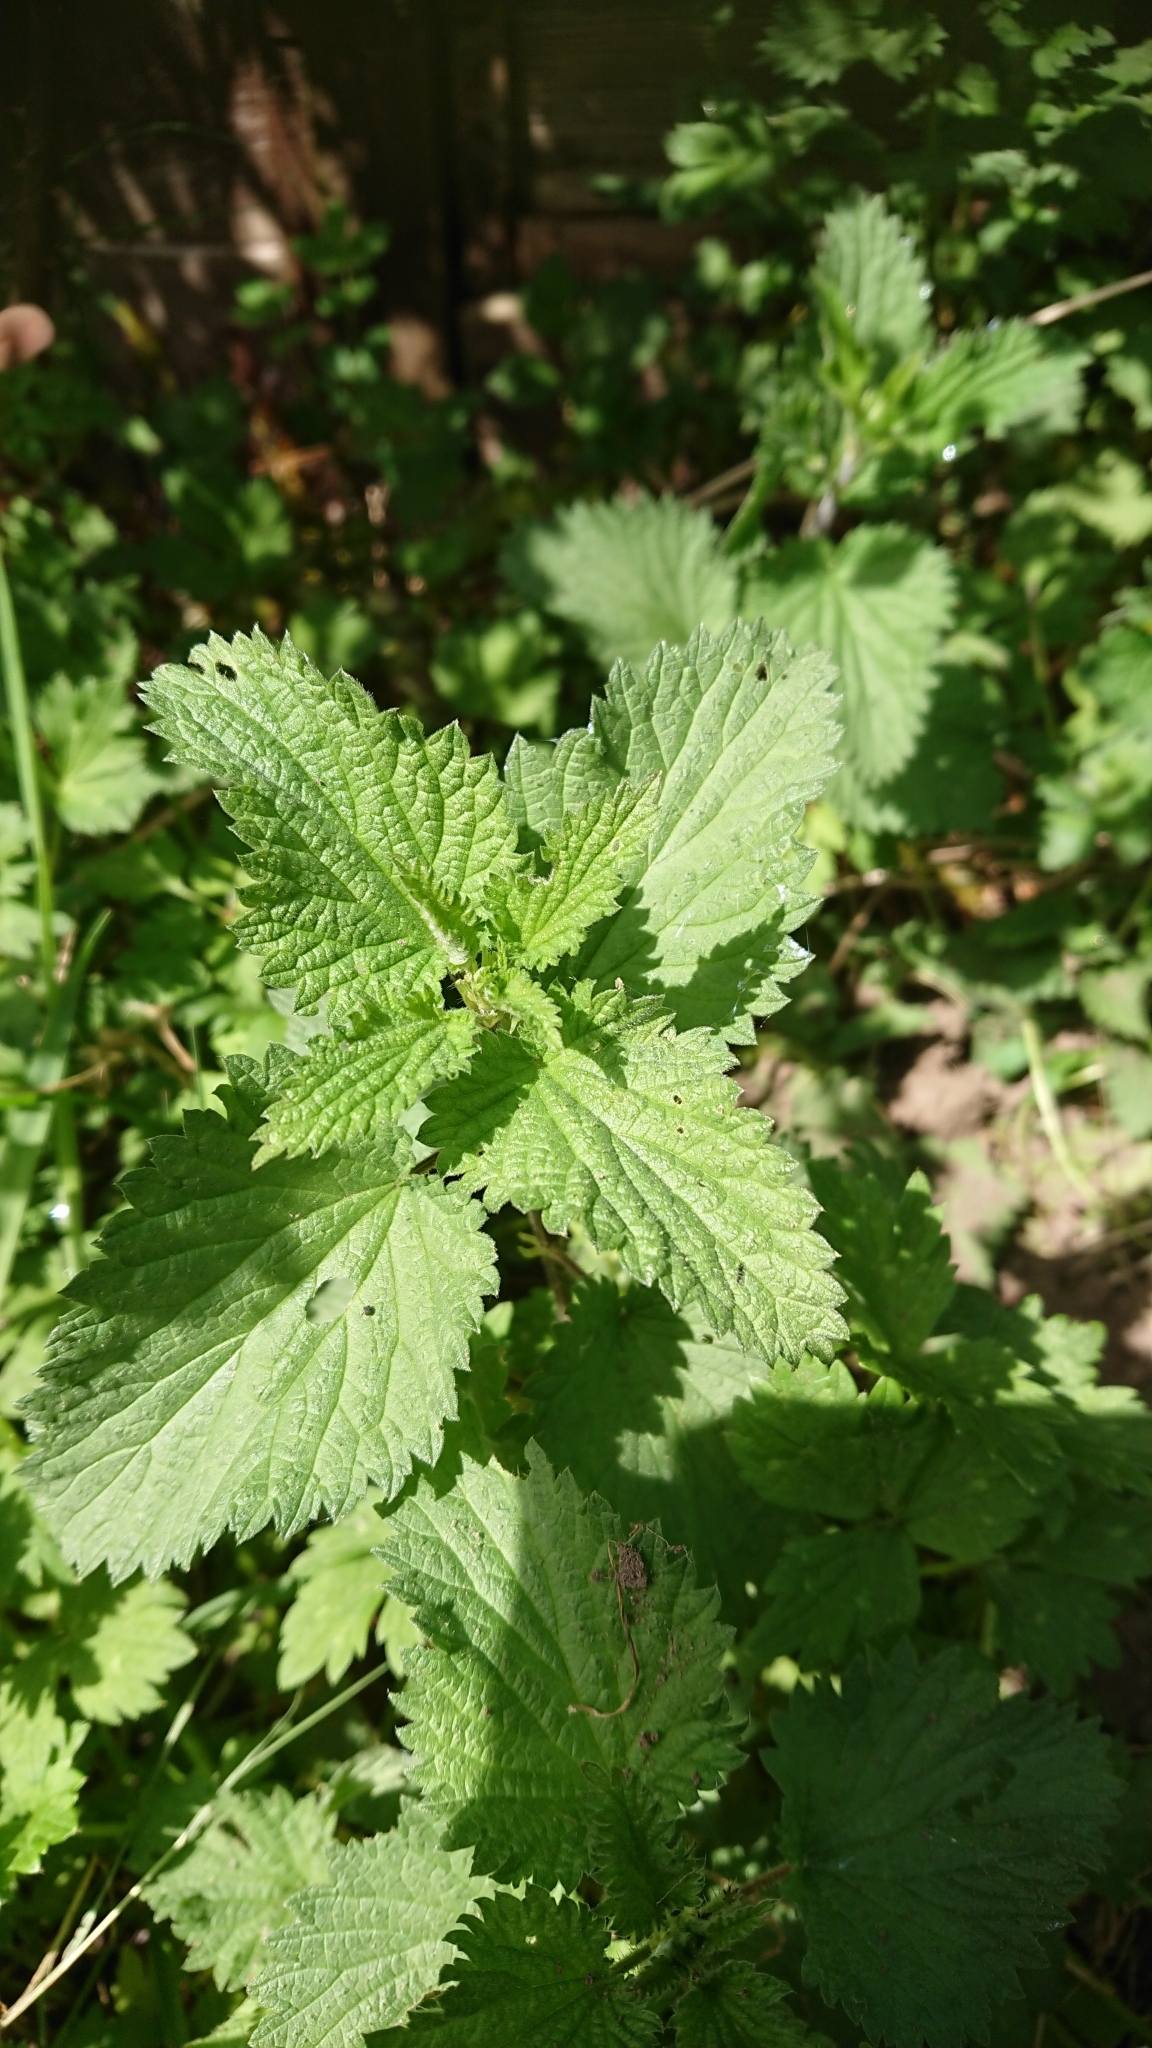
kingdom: Plantae
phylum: Tracheophyta
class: Magnoliopsida
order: Rosales
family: Urticaceae
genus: Urtica
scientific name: Urtica dioica
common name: Common nettle
